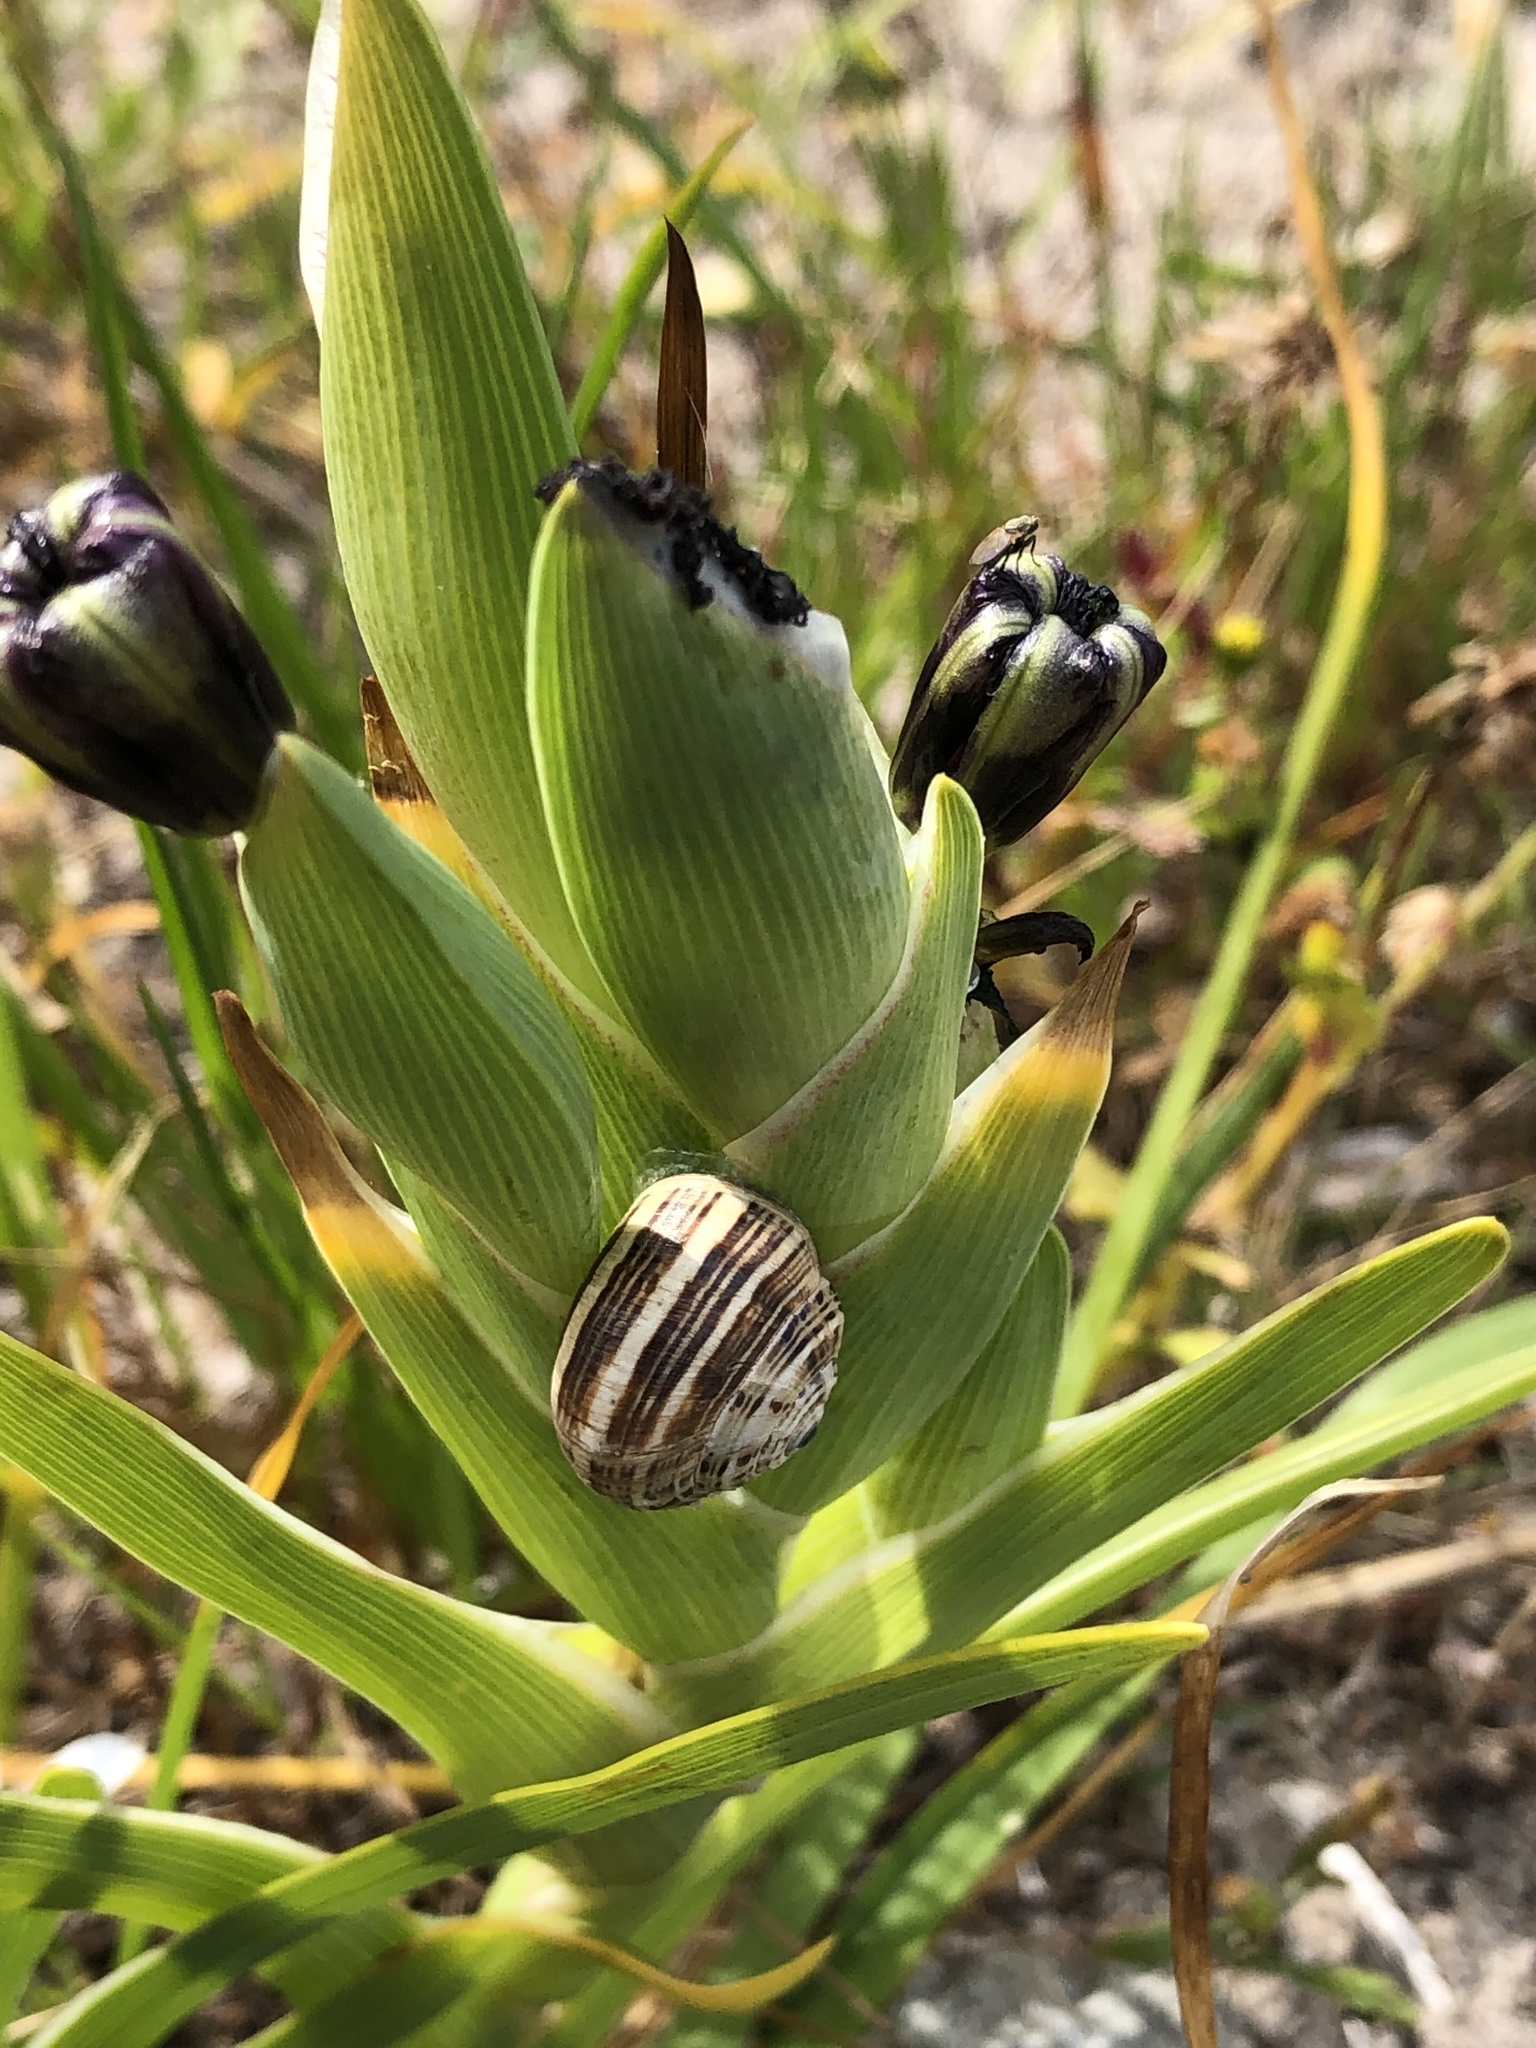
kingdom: Animalia
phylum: Mollusca
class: Gastropoda
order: Stylommatophora
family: Helicidae
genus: Theba
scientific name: Theba pisana
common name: White snail
